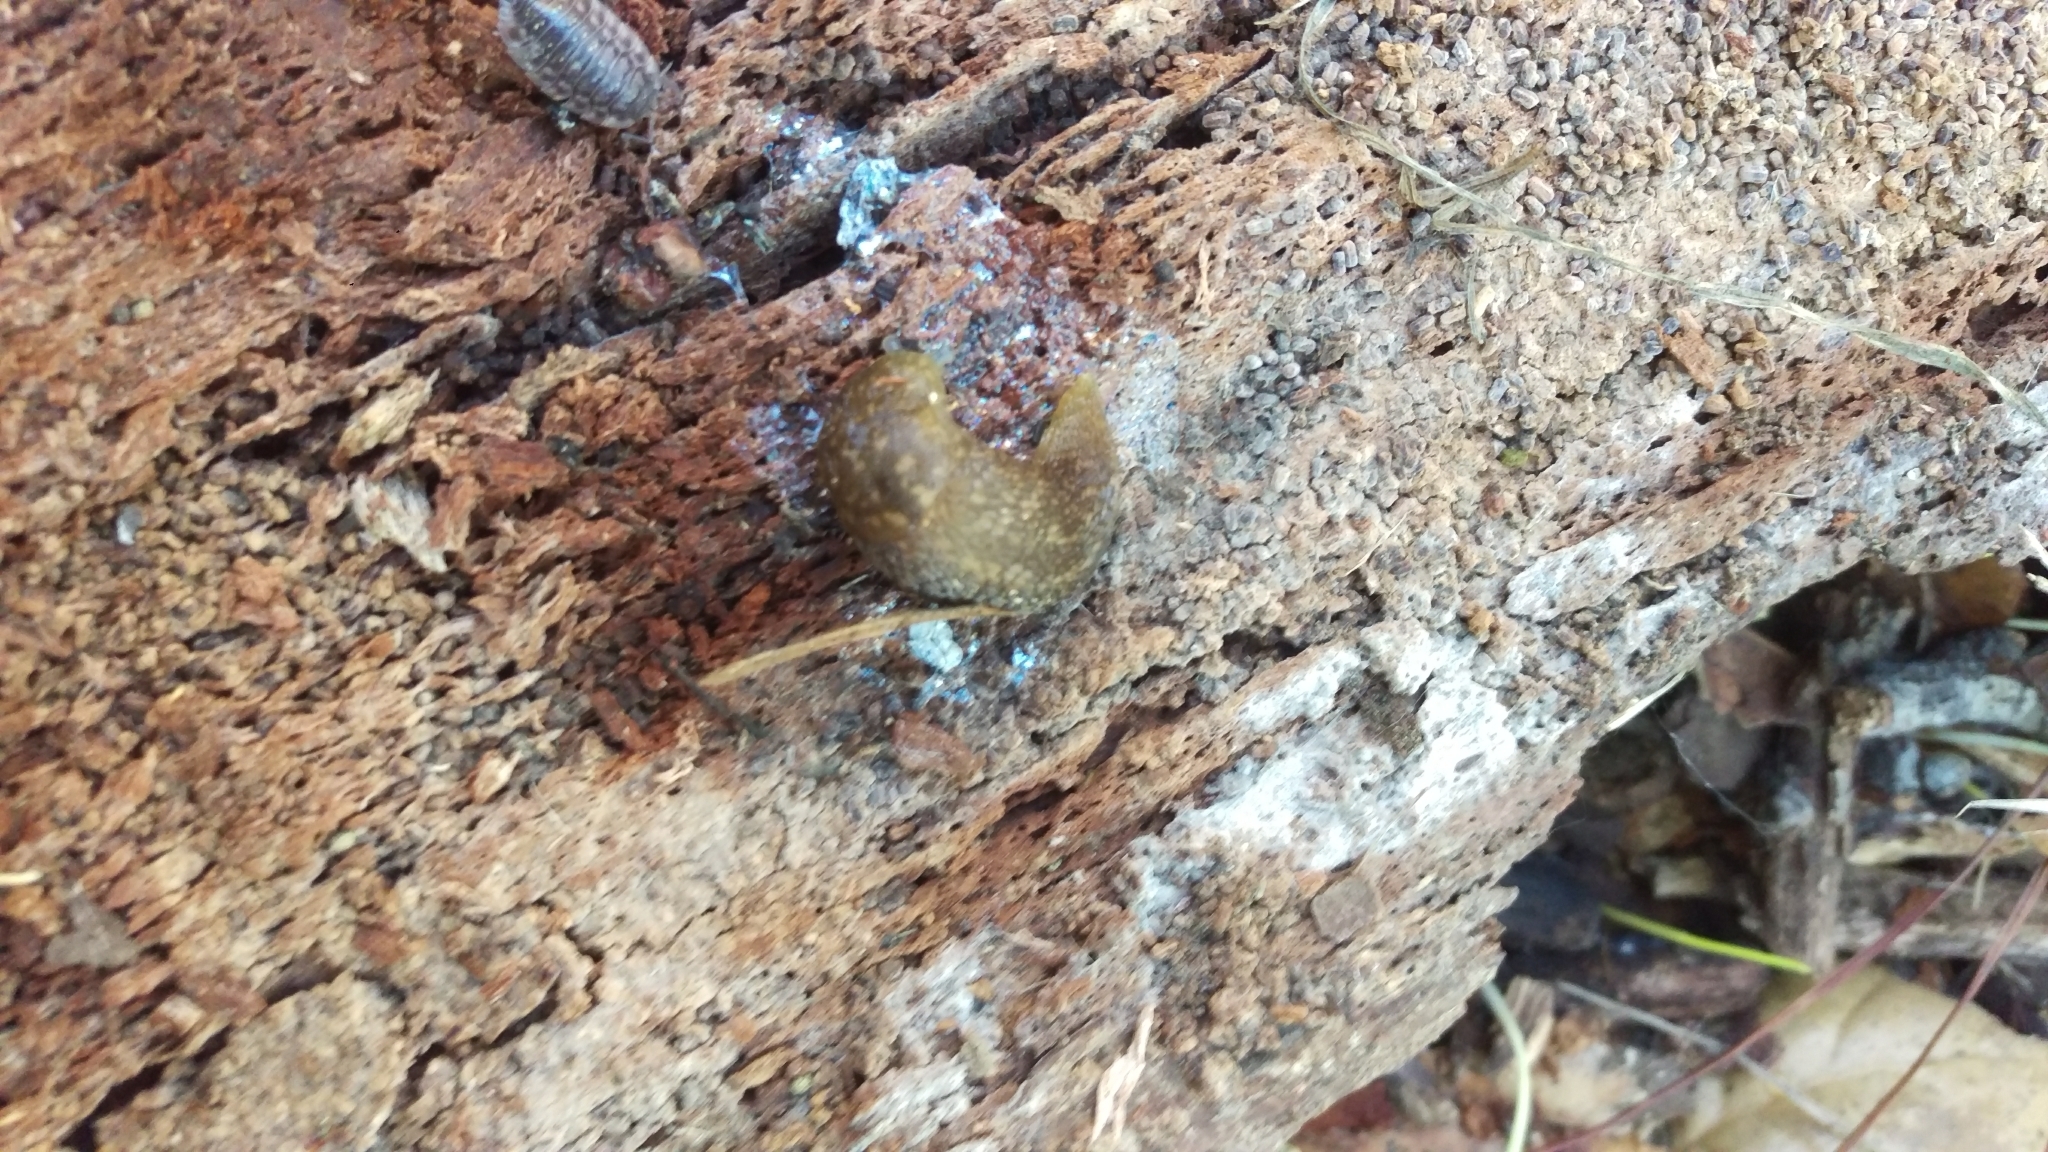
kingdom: Animalia
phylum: Mollusca
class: Gastropoda
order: Stylommatophora
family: Limacidae
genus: Limacus
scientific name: Limacus flavus
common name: Yellow gardenslug
